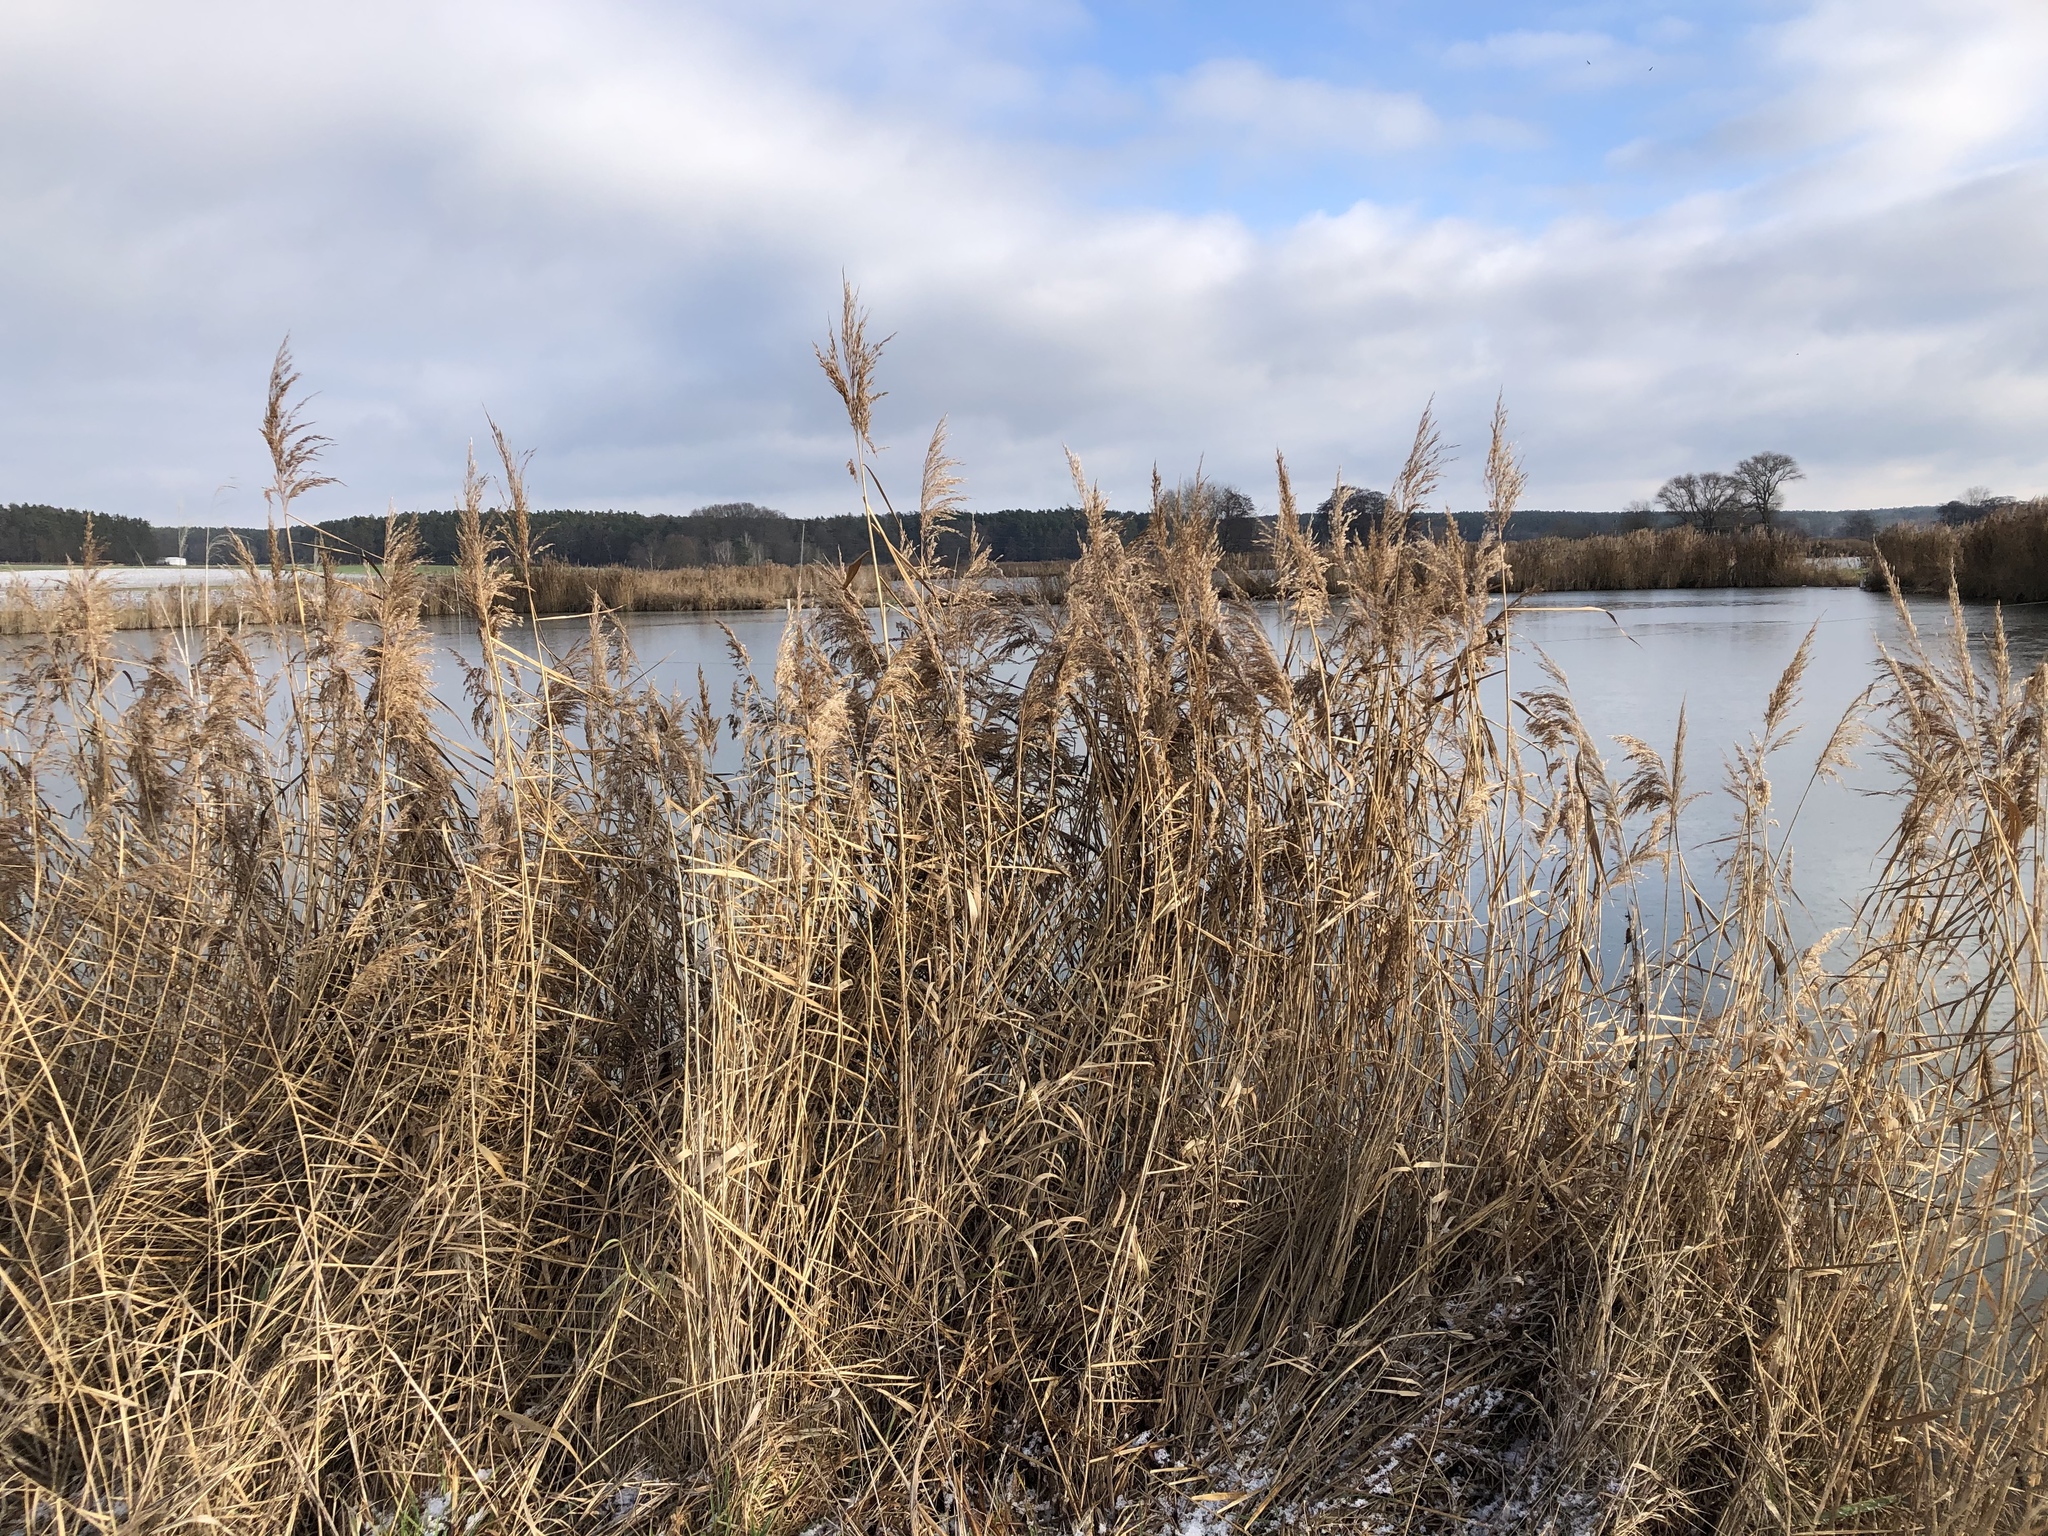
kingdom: Plantae
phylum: Tracheophyta
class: Liliopsida
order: Poales
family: Poaceae
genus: Phragmites
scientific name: Phragmites australis
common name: Common reed
